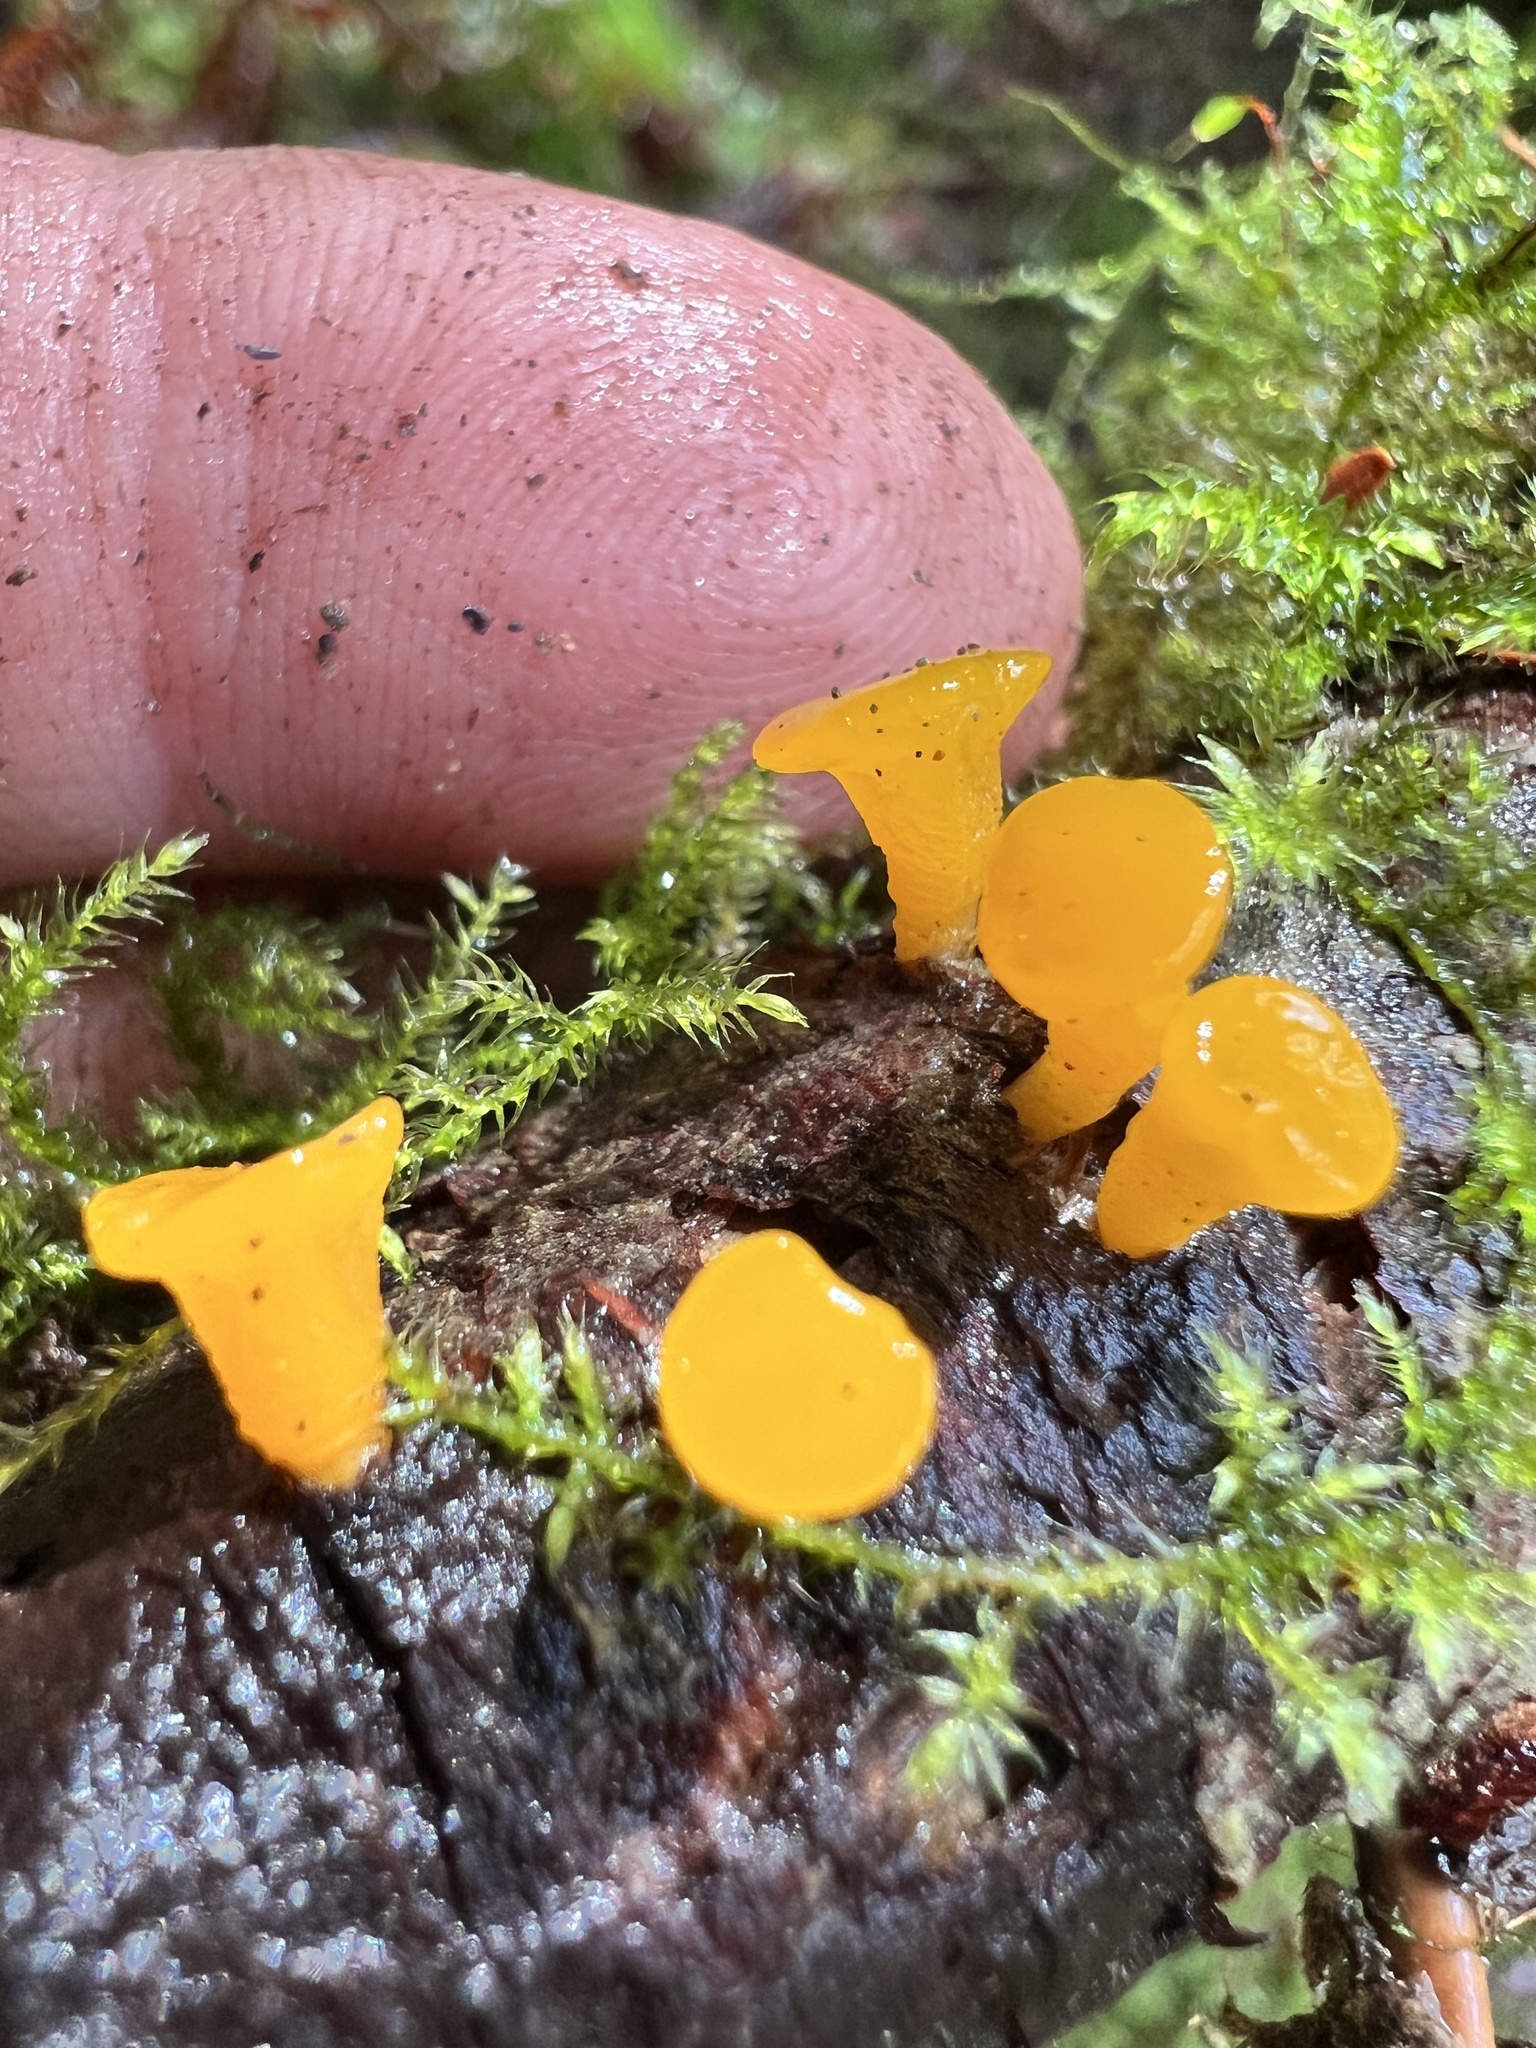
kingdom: Fungi
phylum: Basidiomycota
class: Dacrymycetes
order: Dacrymycetales
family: Dacrymycetaceae
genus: Guepiniopsis
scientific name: Guepiniopsis alpina
